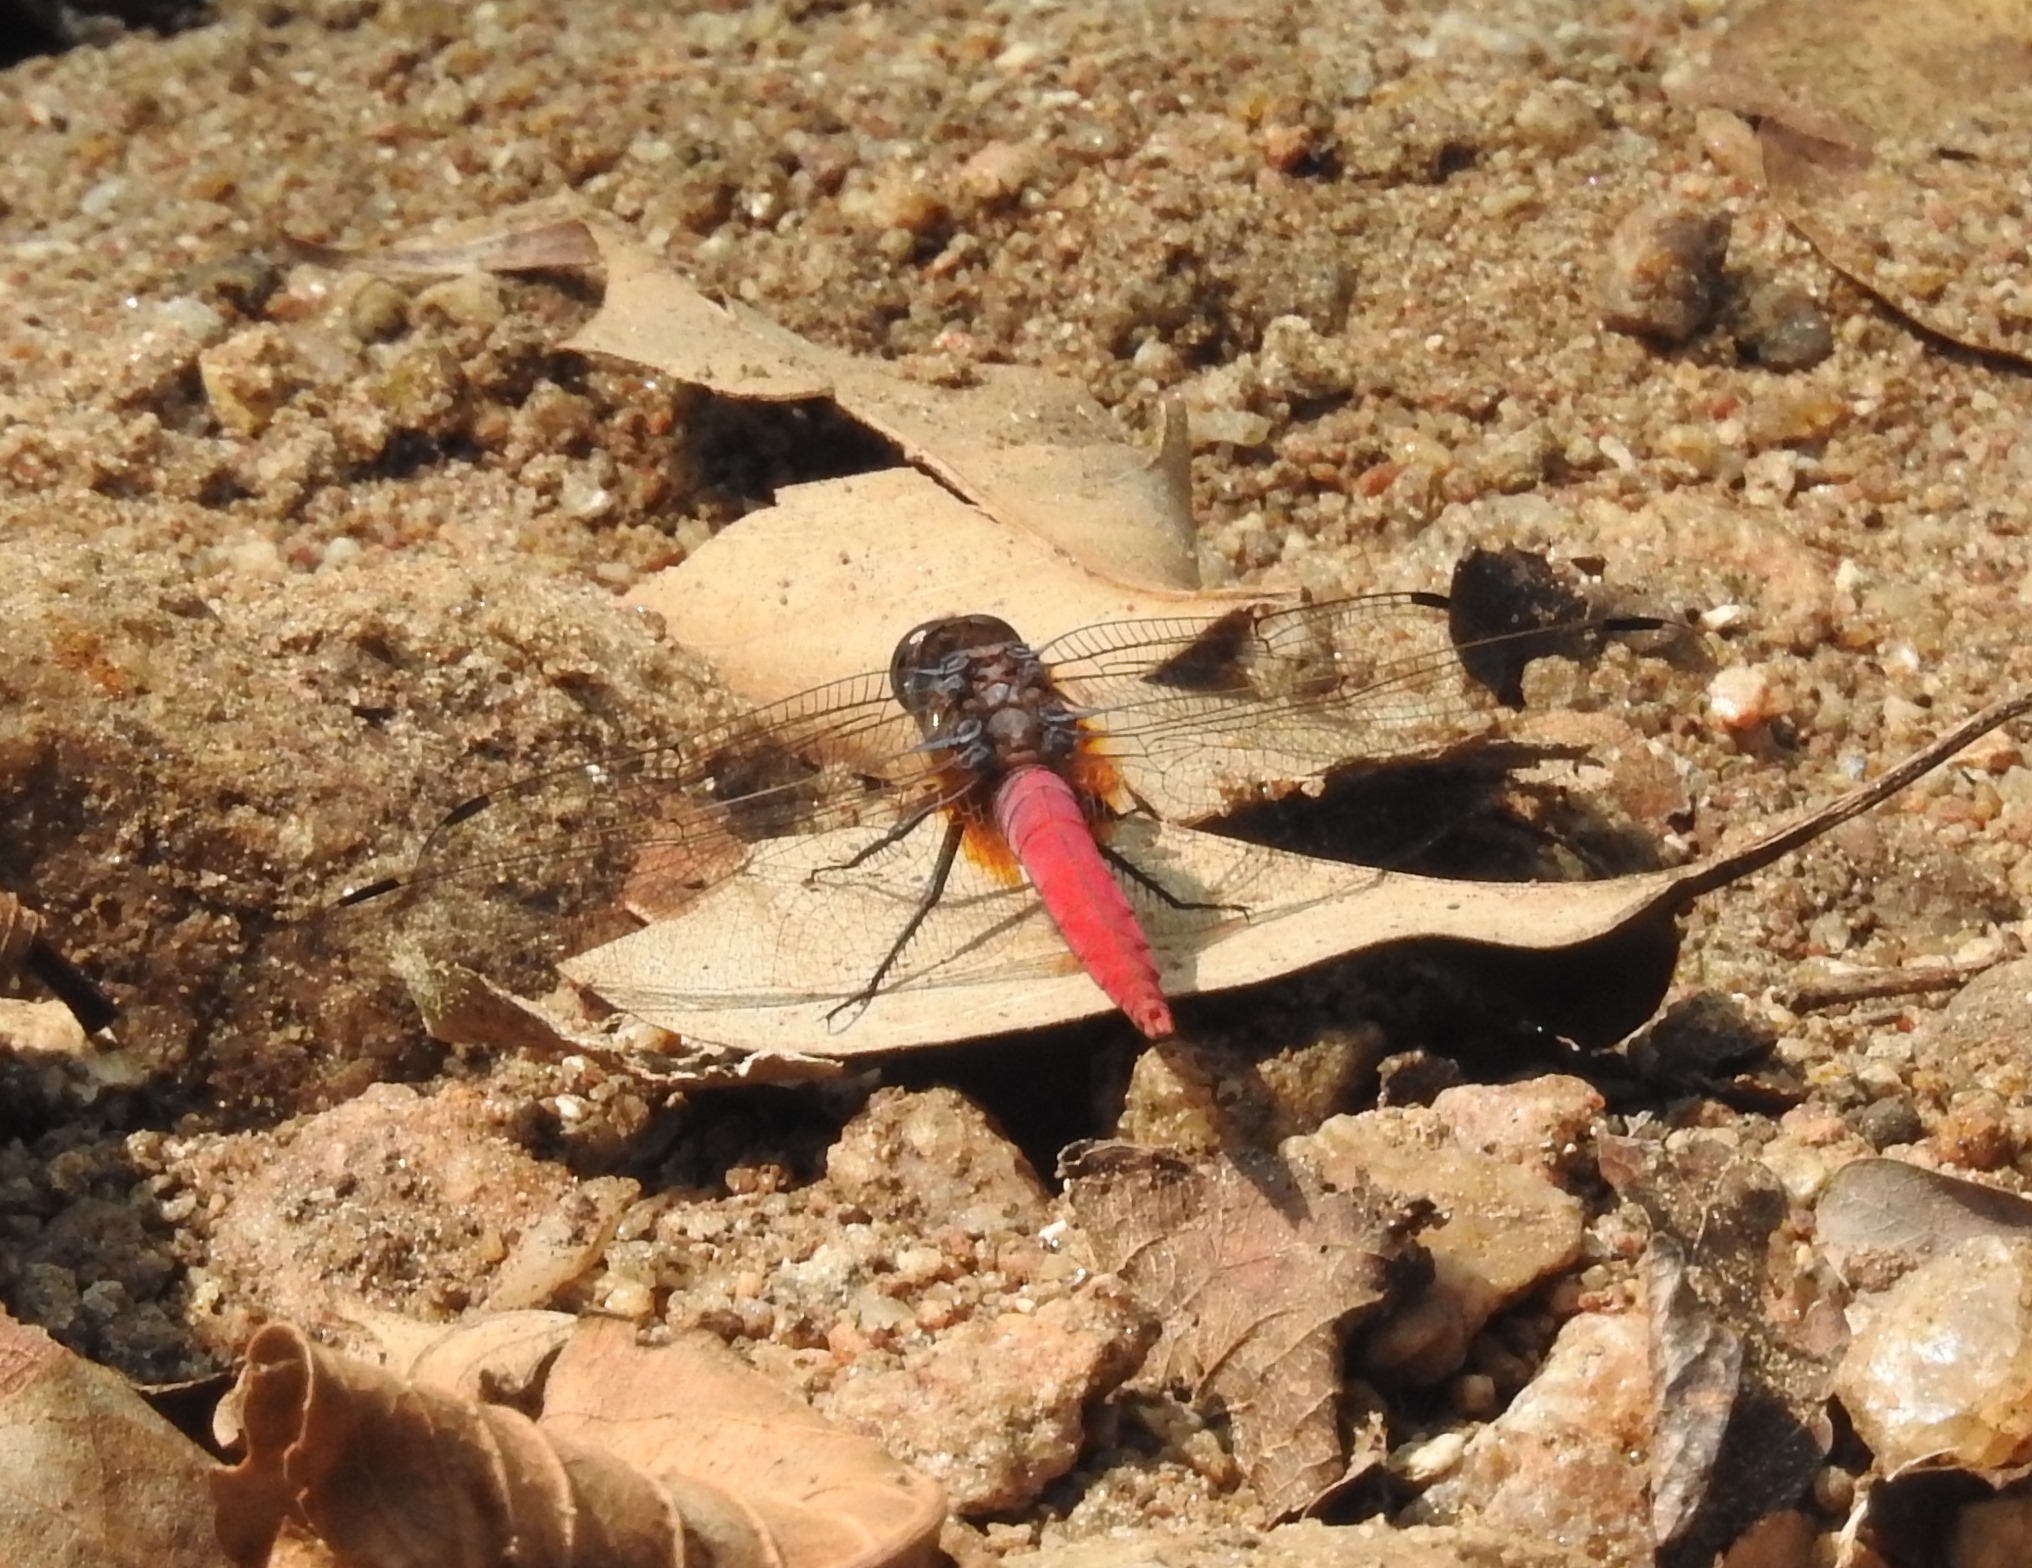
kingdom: Animalia
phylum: Arthropoda
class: Insecta
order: Odonata
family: Libellulidae
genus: Orthetrum
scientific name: Orthetrum pruinosum
